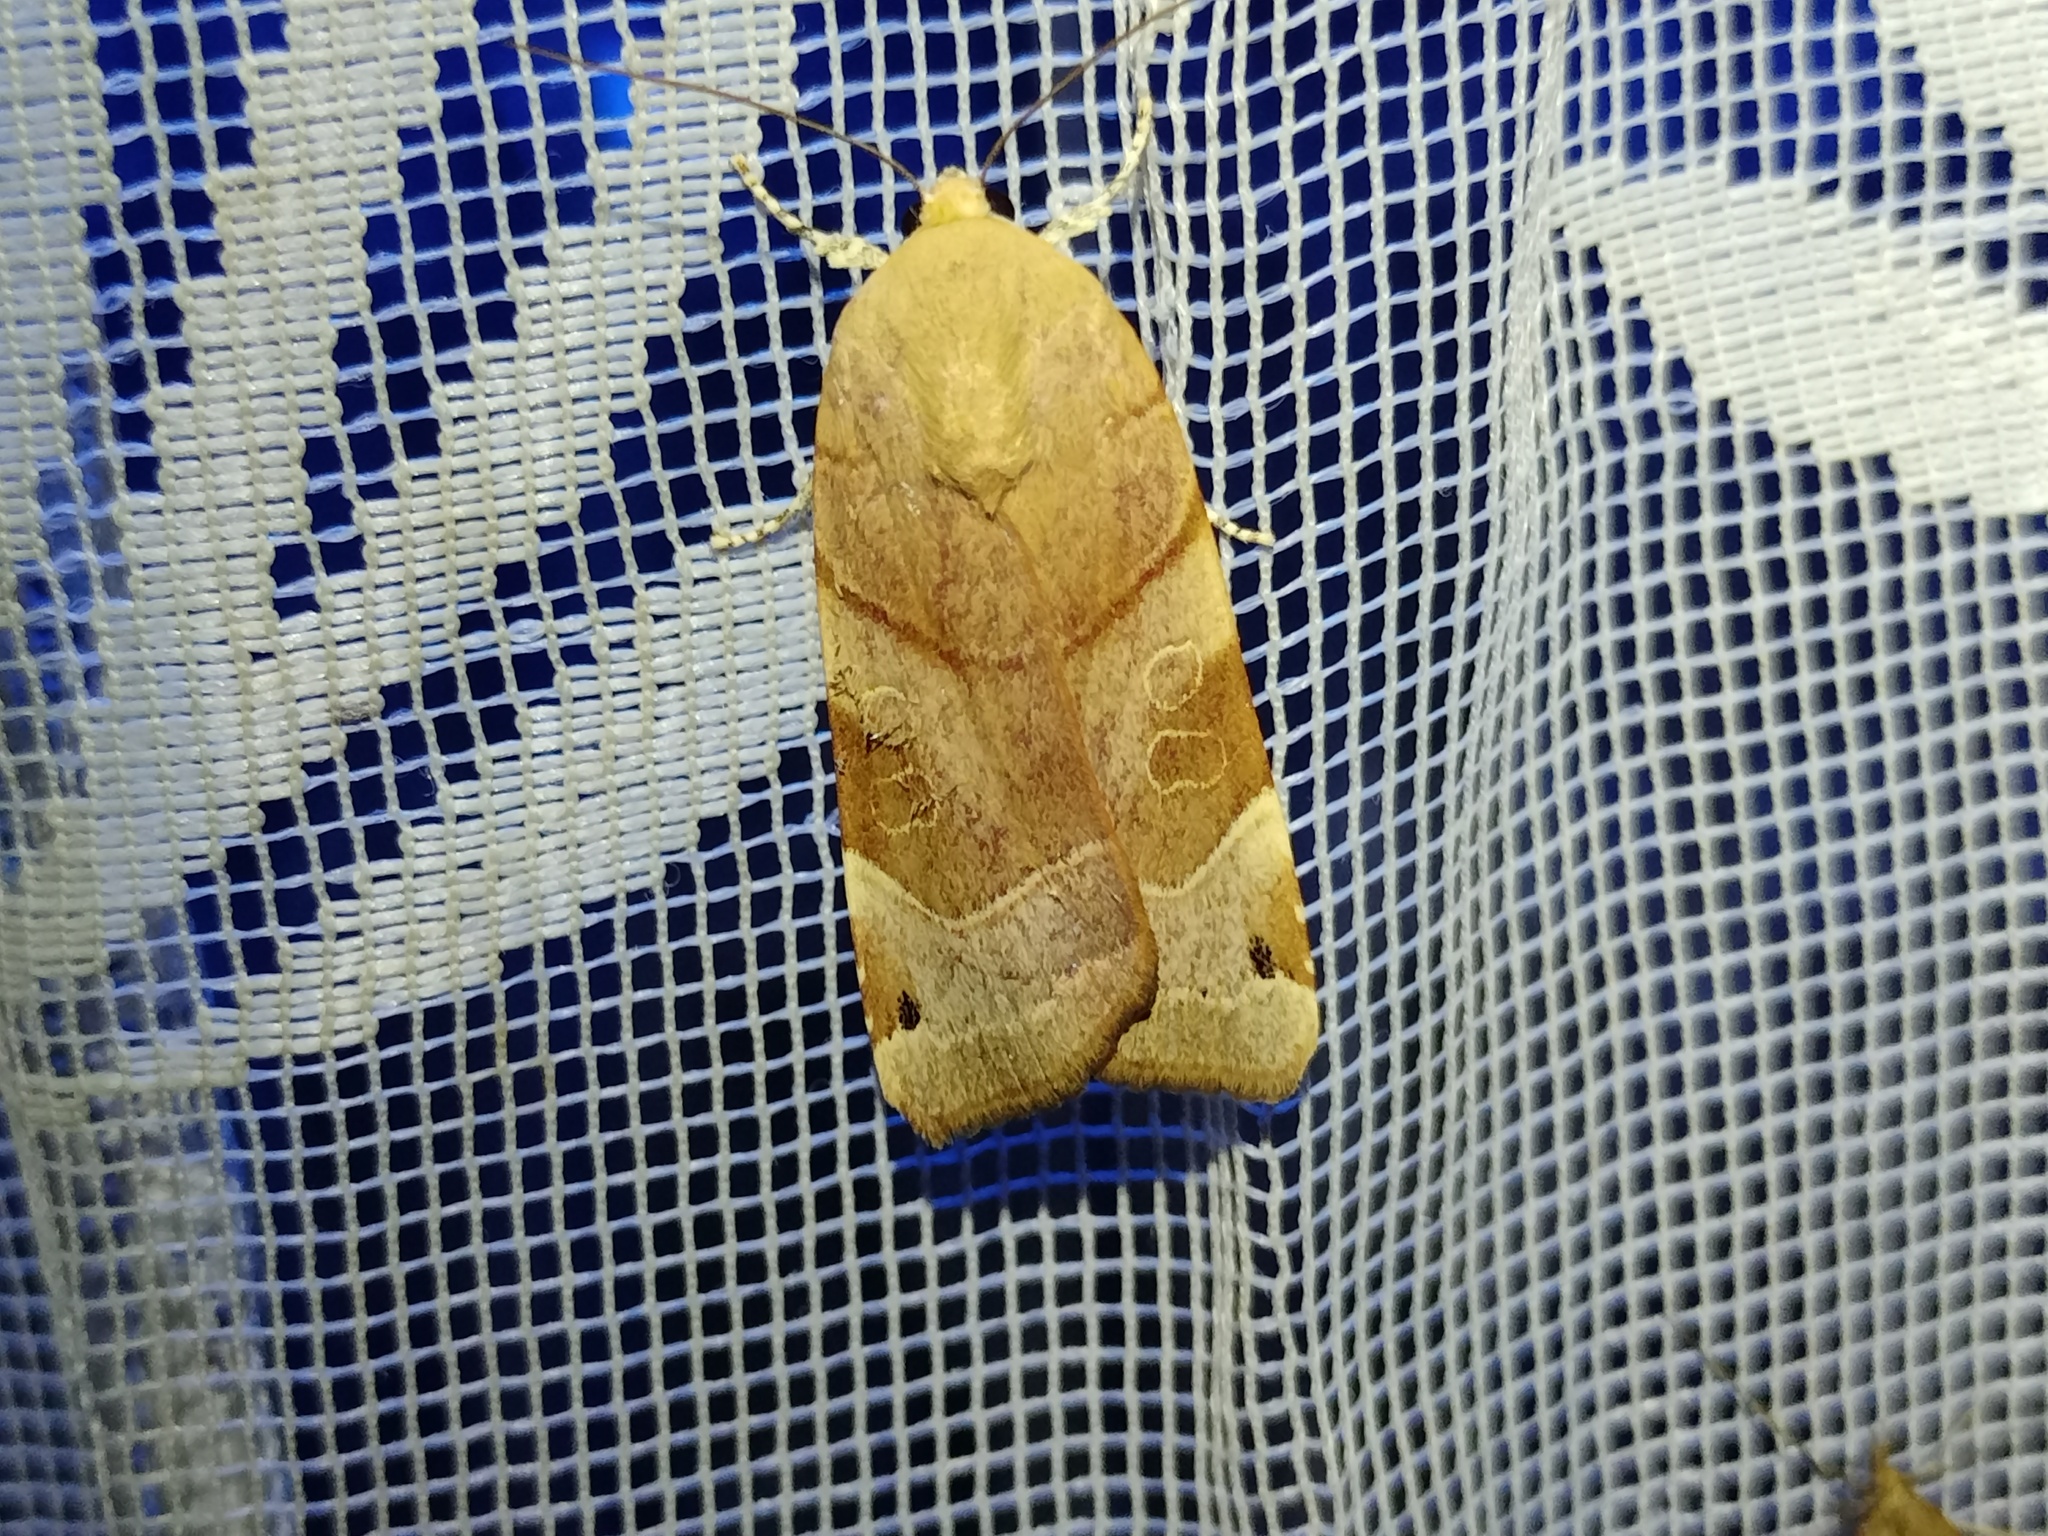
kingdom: Animalia
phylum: Arthropoda
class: Insecta
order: Lepidoptera
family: Noctuidae
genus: Noctua
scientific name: Noctua fimbriata
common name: Broad-bordered yellow underwing
